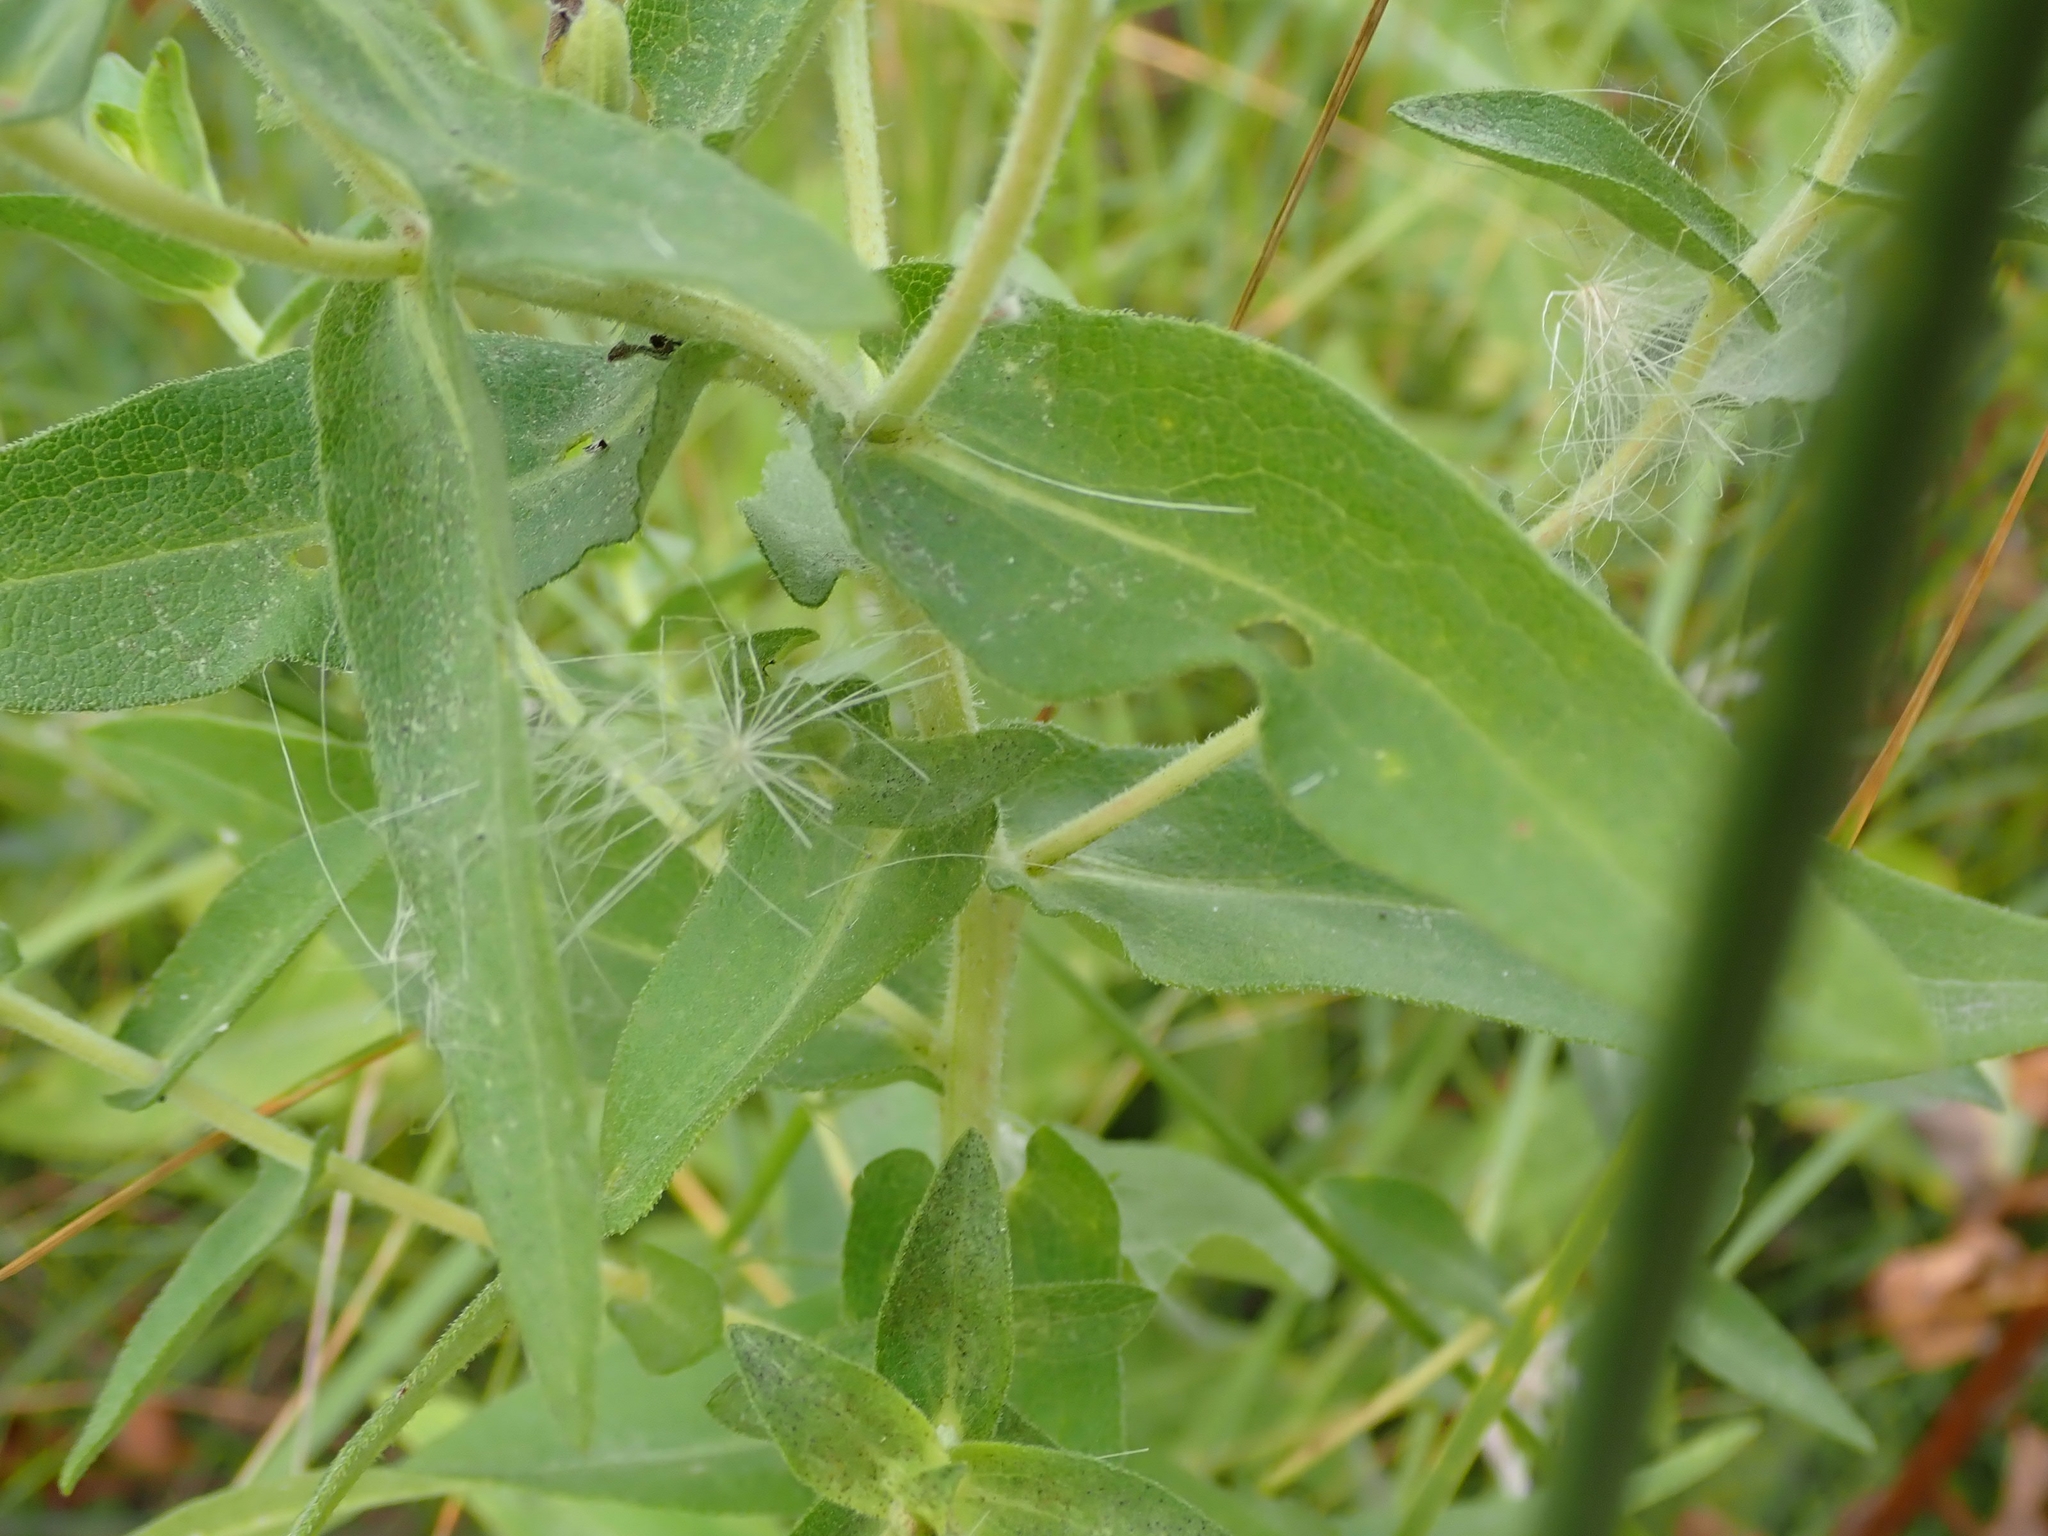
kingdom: Plantae
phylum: Tracheophyta
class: Magnoliopsida
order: Asterales
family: Asteraceae
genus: Symphyotrichum
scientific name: Symphyotrichum novae-angliae
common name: Michaelmas daisy
